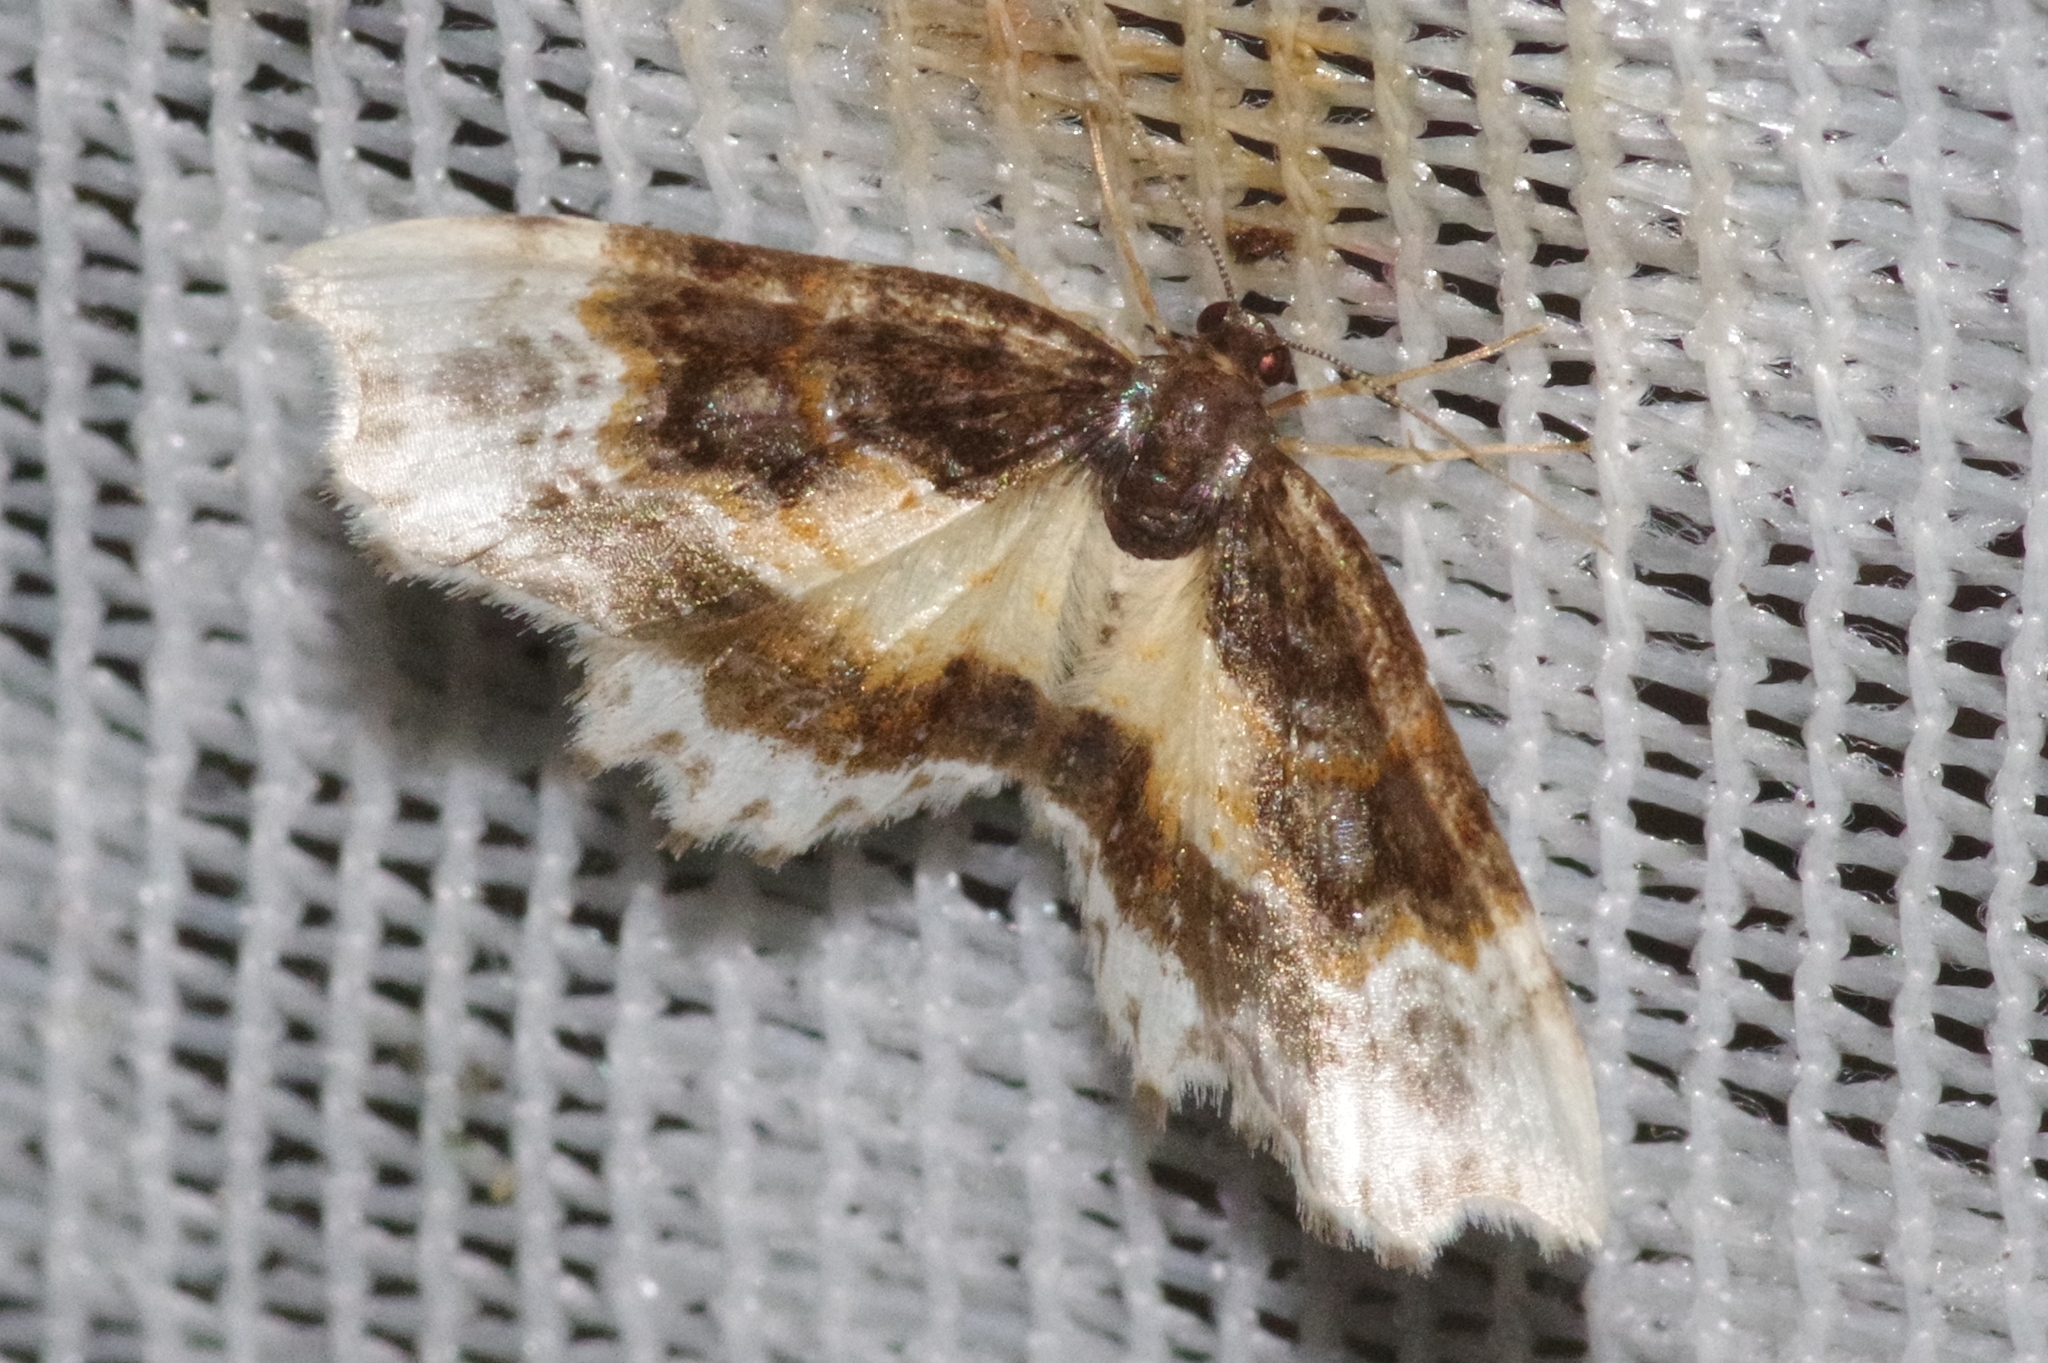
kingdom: Animalia
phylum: Arthropoda
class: Insecta
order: Lepidoptera
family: Geometridae
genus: Macrohastina
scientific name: Macrohastina azela
